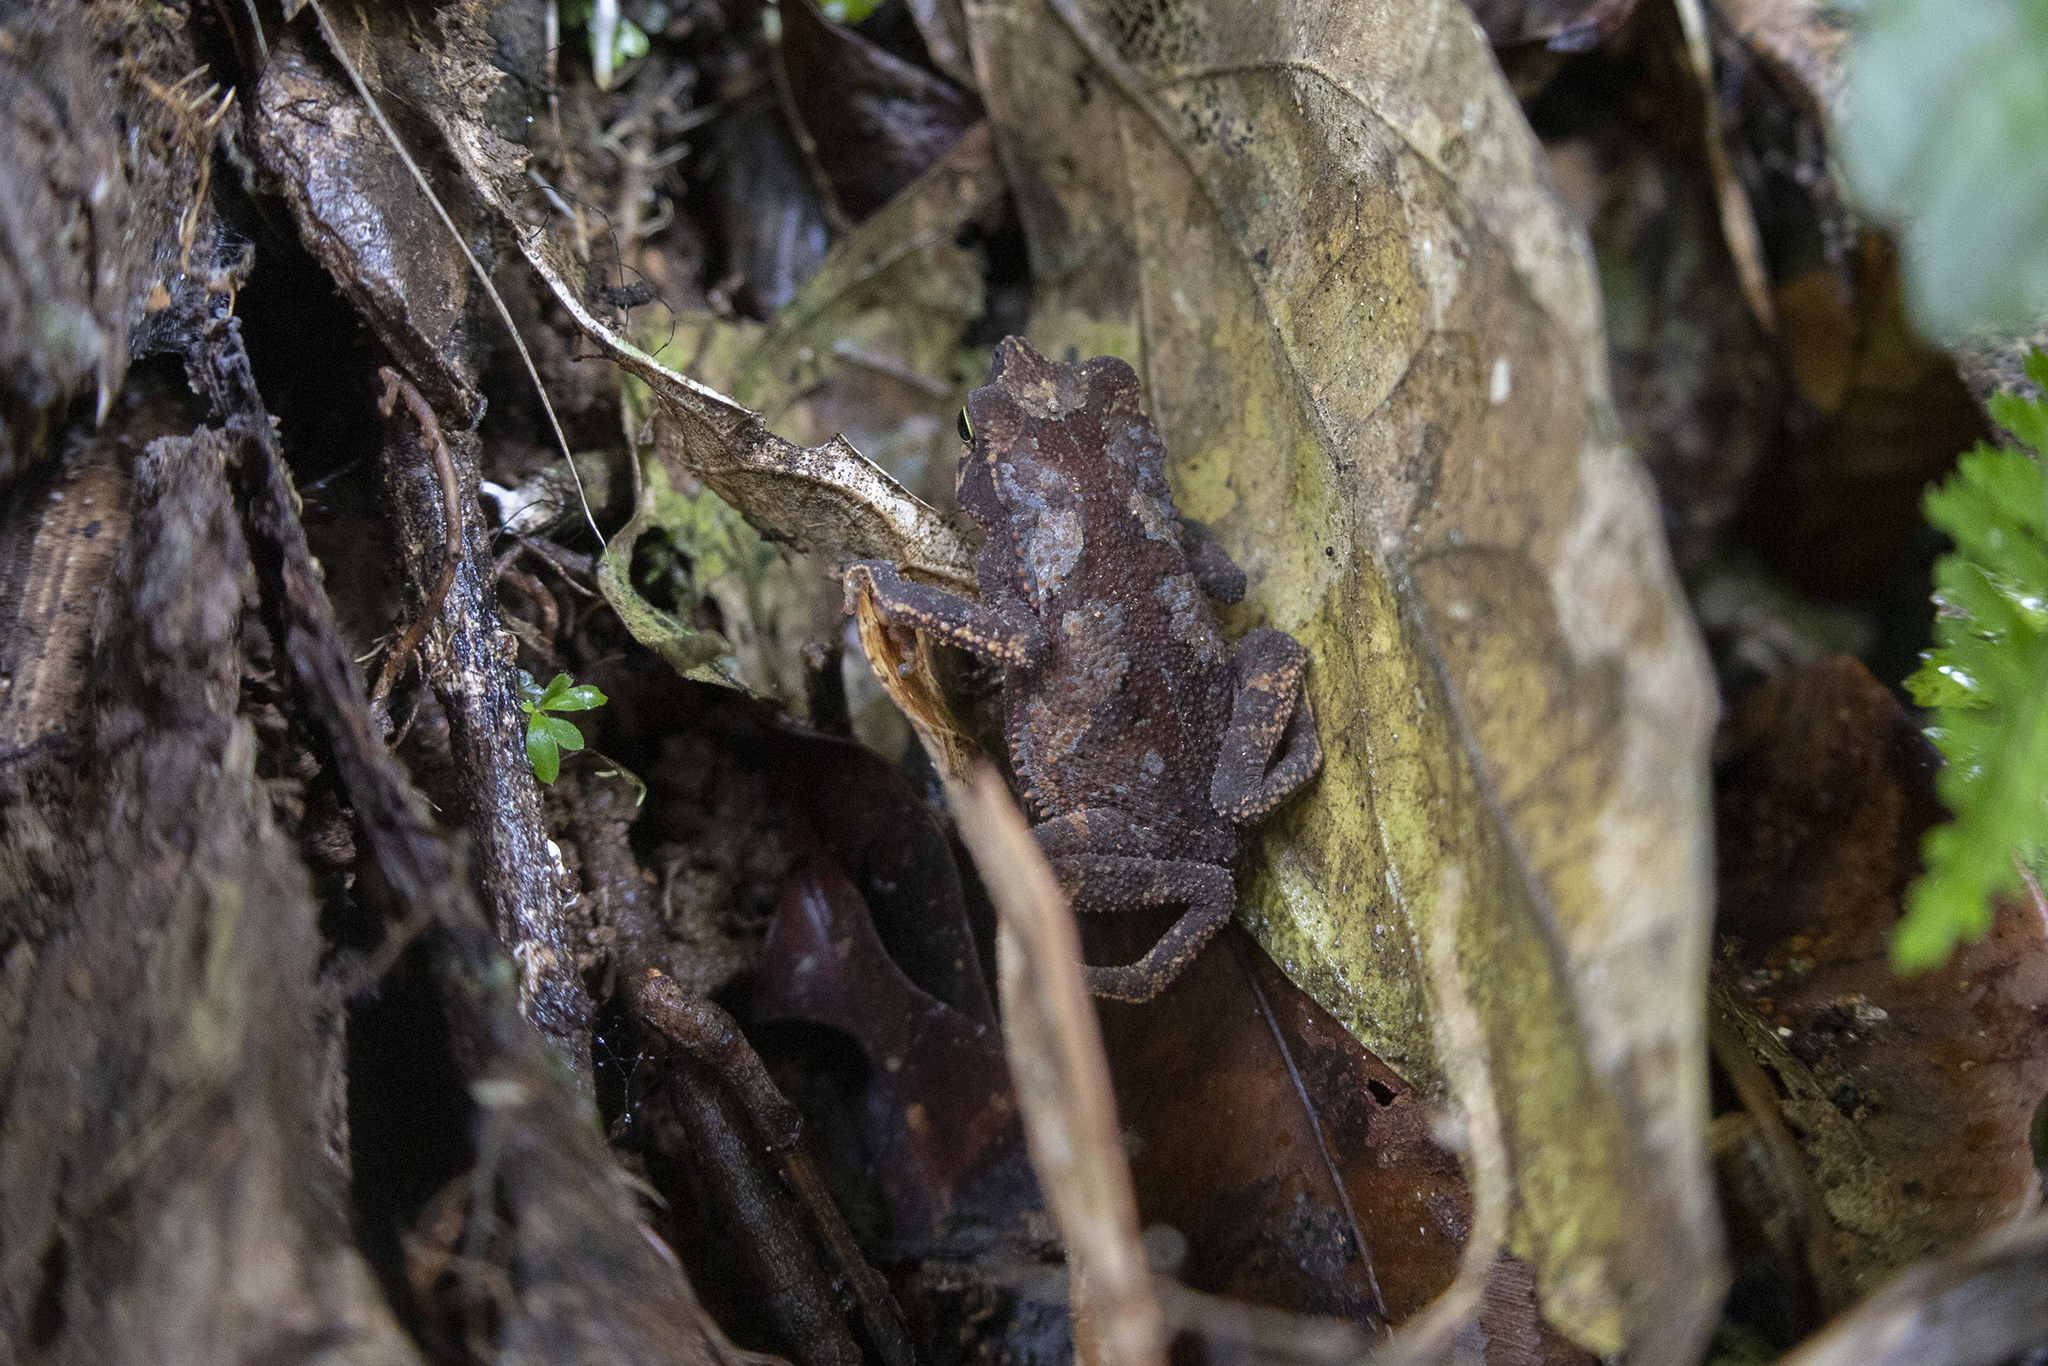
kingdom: Animalia
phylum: Chordata
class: Amphibia
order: Anura
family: Bufonidae
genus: Rhinella
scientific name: Rhinella alata
